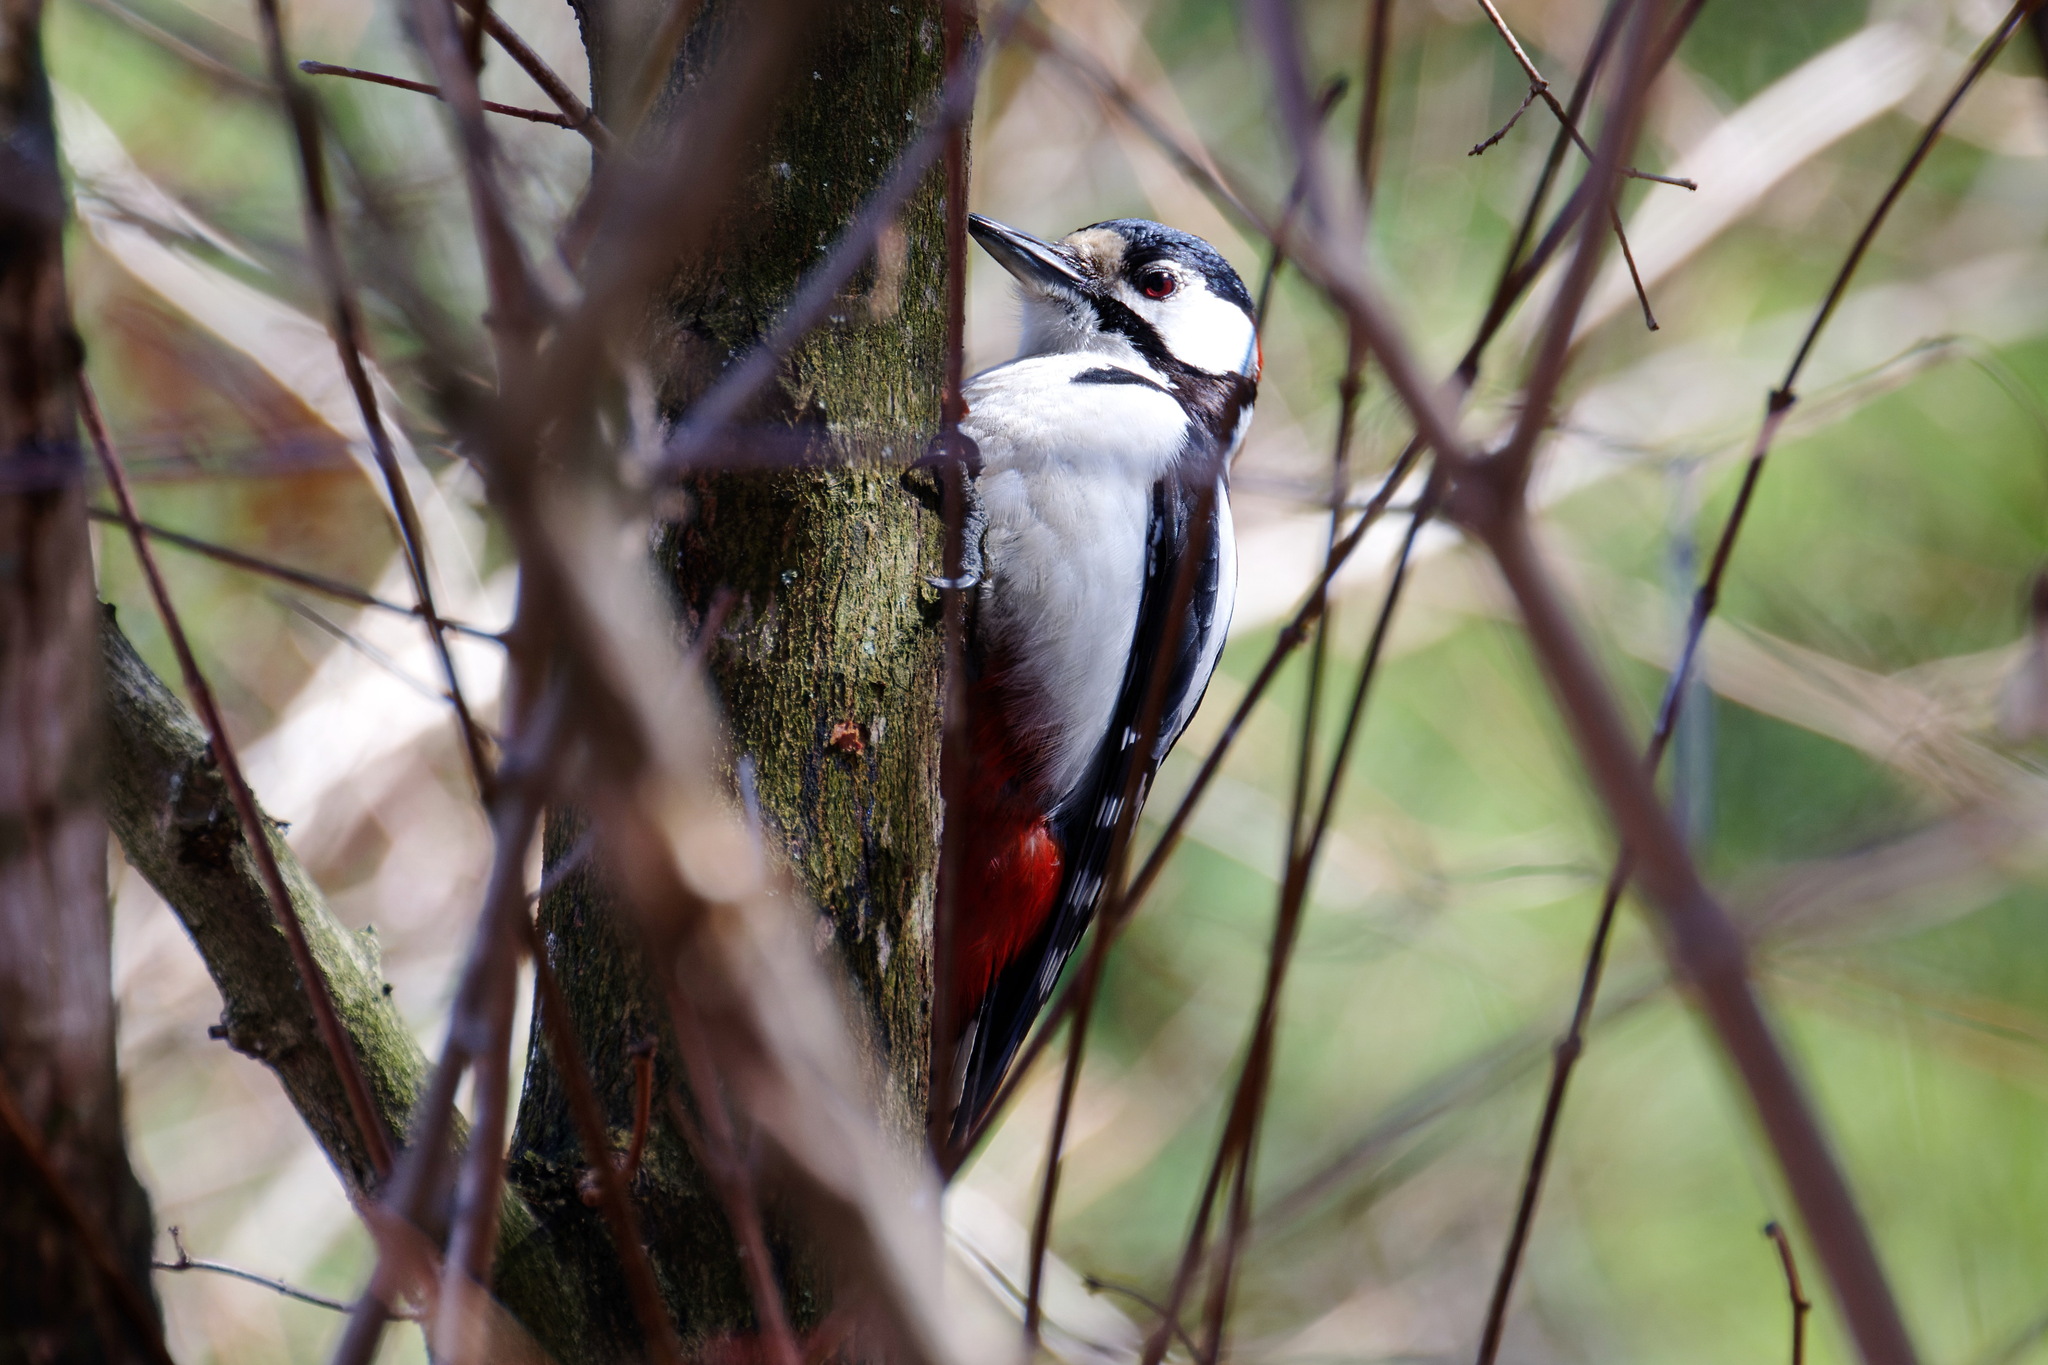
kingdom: Animalia
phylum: Chordata
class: Aves
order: Piciformes
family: Picidae
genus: Dendrocopos
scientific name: Dendrocopos major
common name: Great spotted woodpecker
